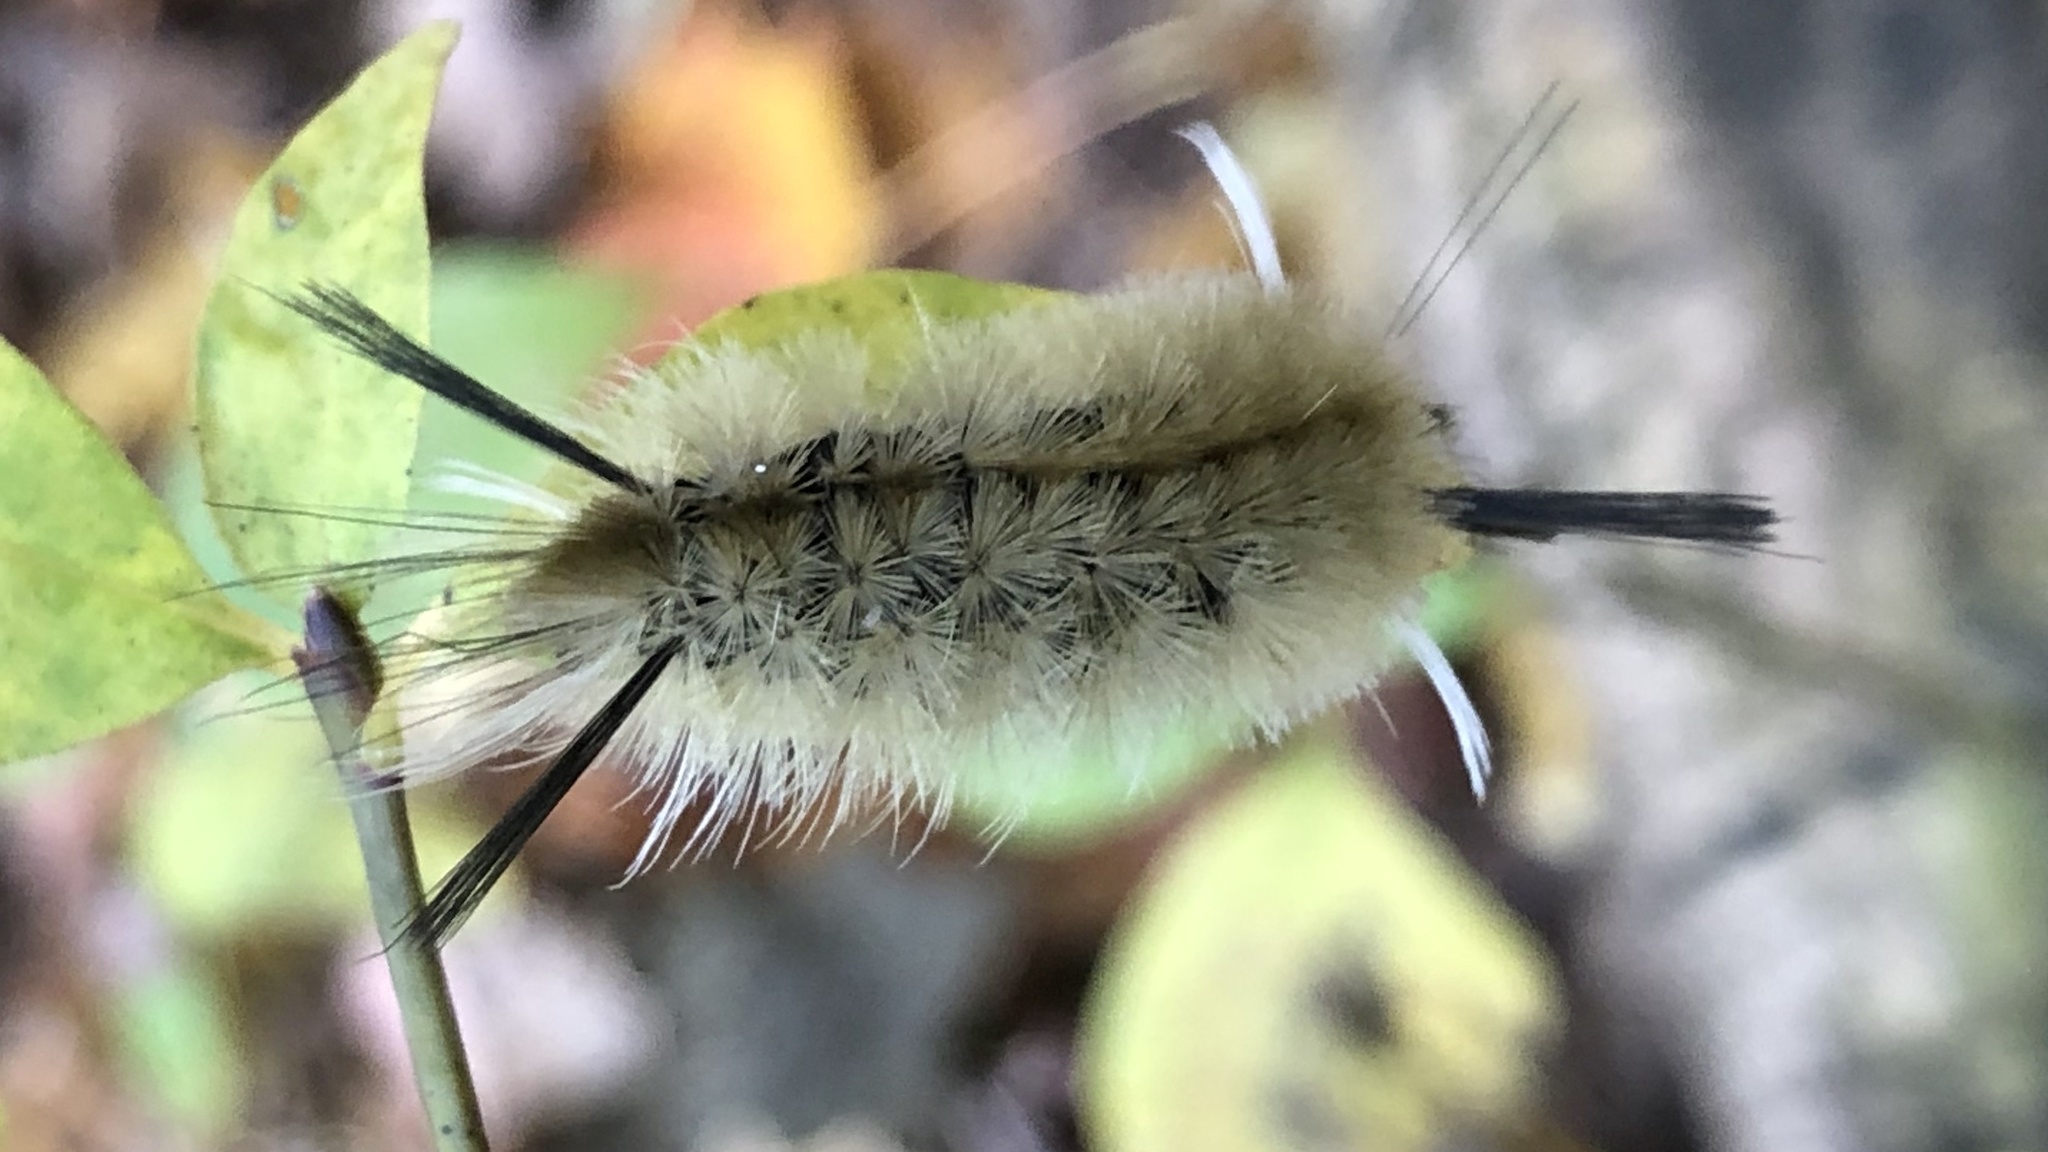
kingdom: Animalia
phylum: Arthropoda
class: Insecta
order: Lepidoptera
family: Erebidae
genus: Halysidota
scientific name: Halysidota tessellaris
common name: Banded tussock moth
